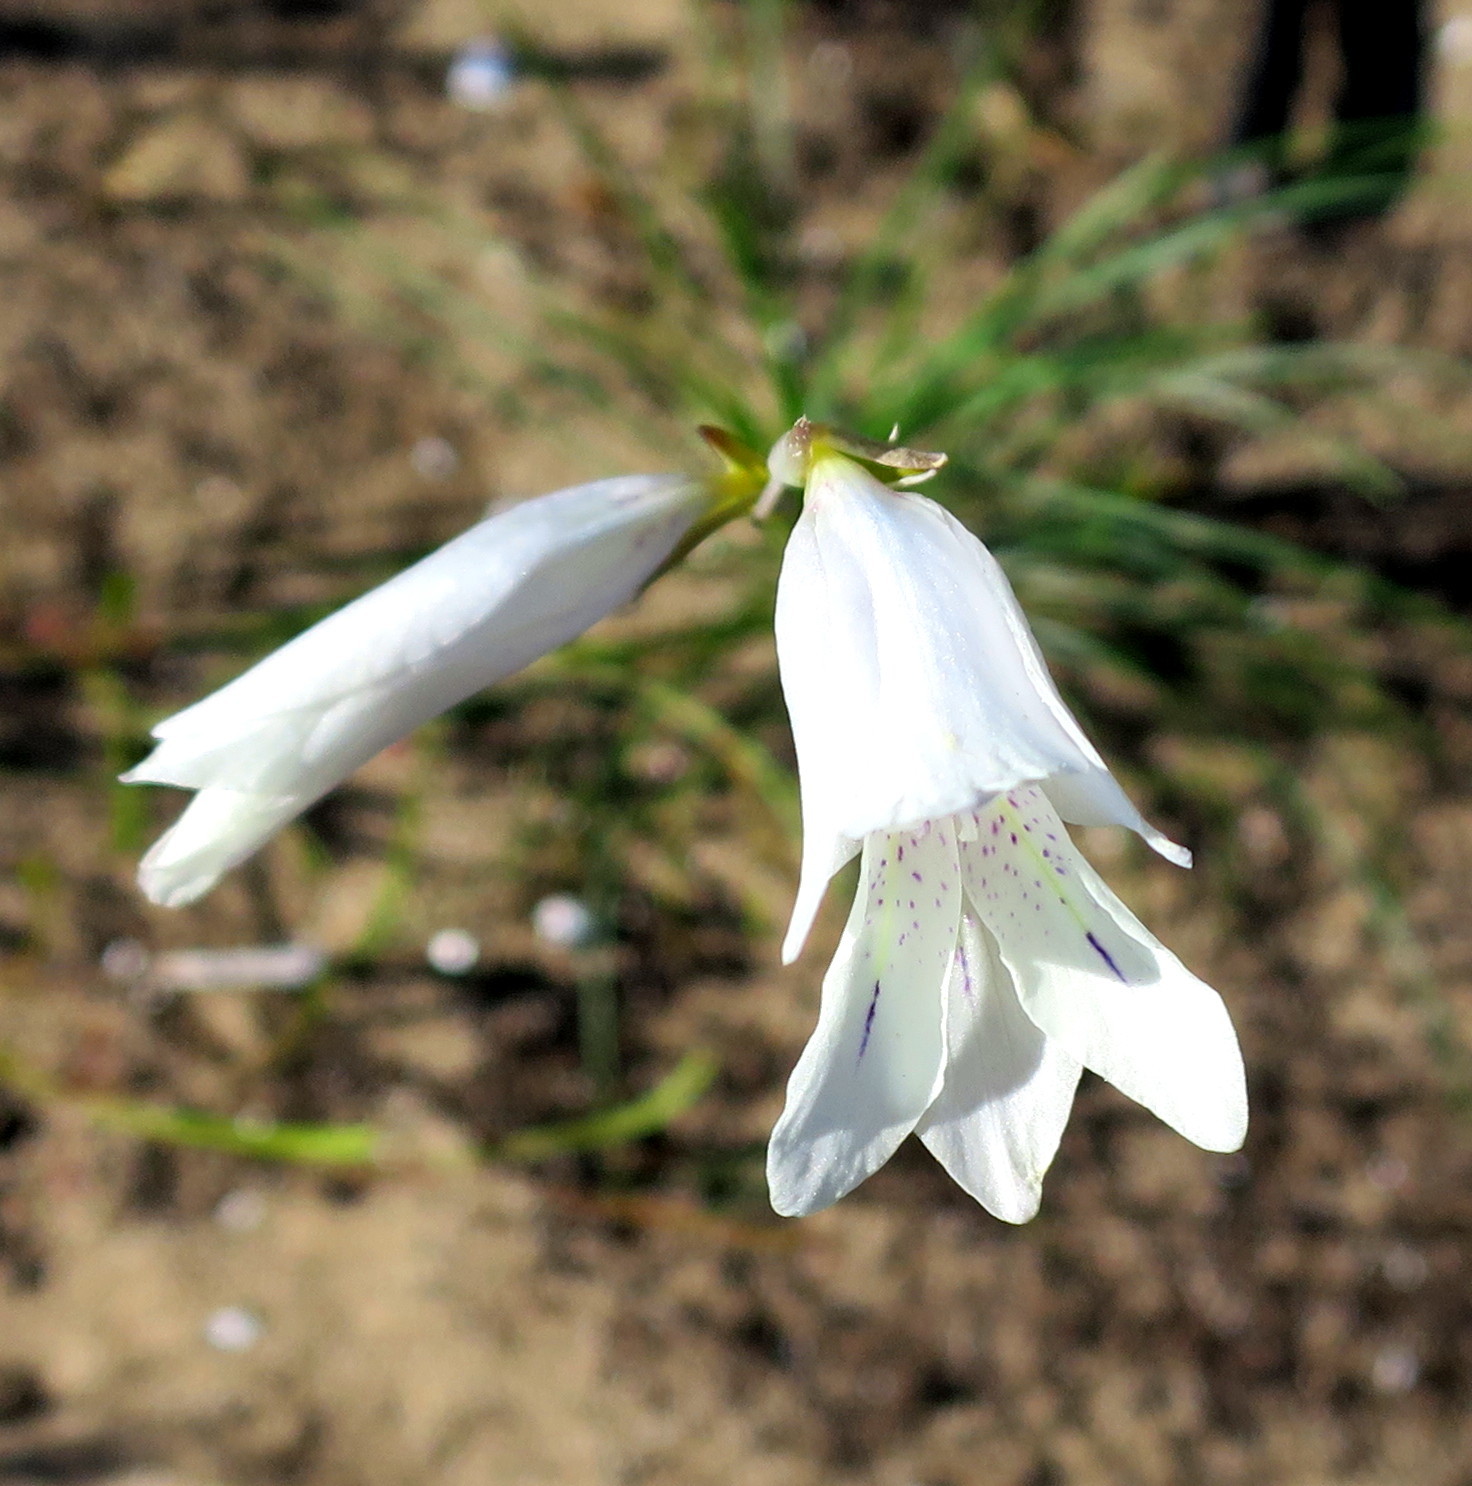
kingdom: Plantae
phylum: Tracheophyta
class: Liliopsida
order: Asparagales
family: Iridaceae
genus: Gladiolus
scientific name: Gladiolus vaginatus
